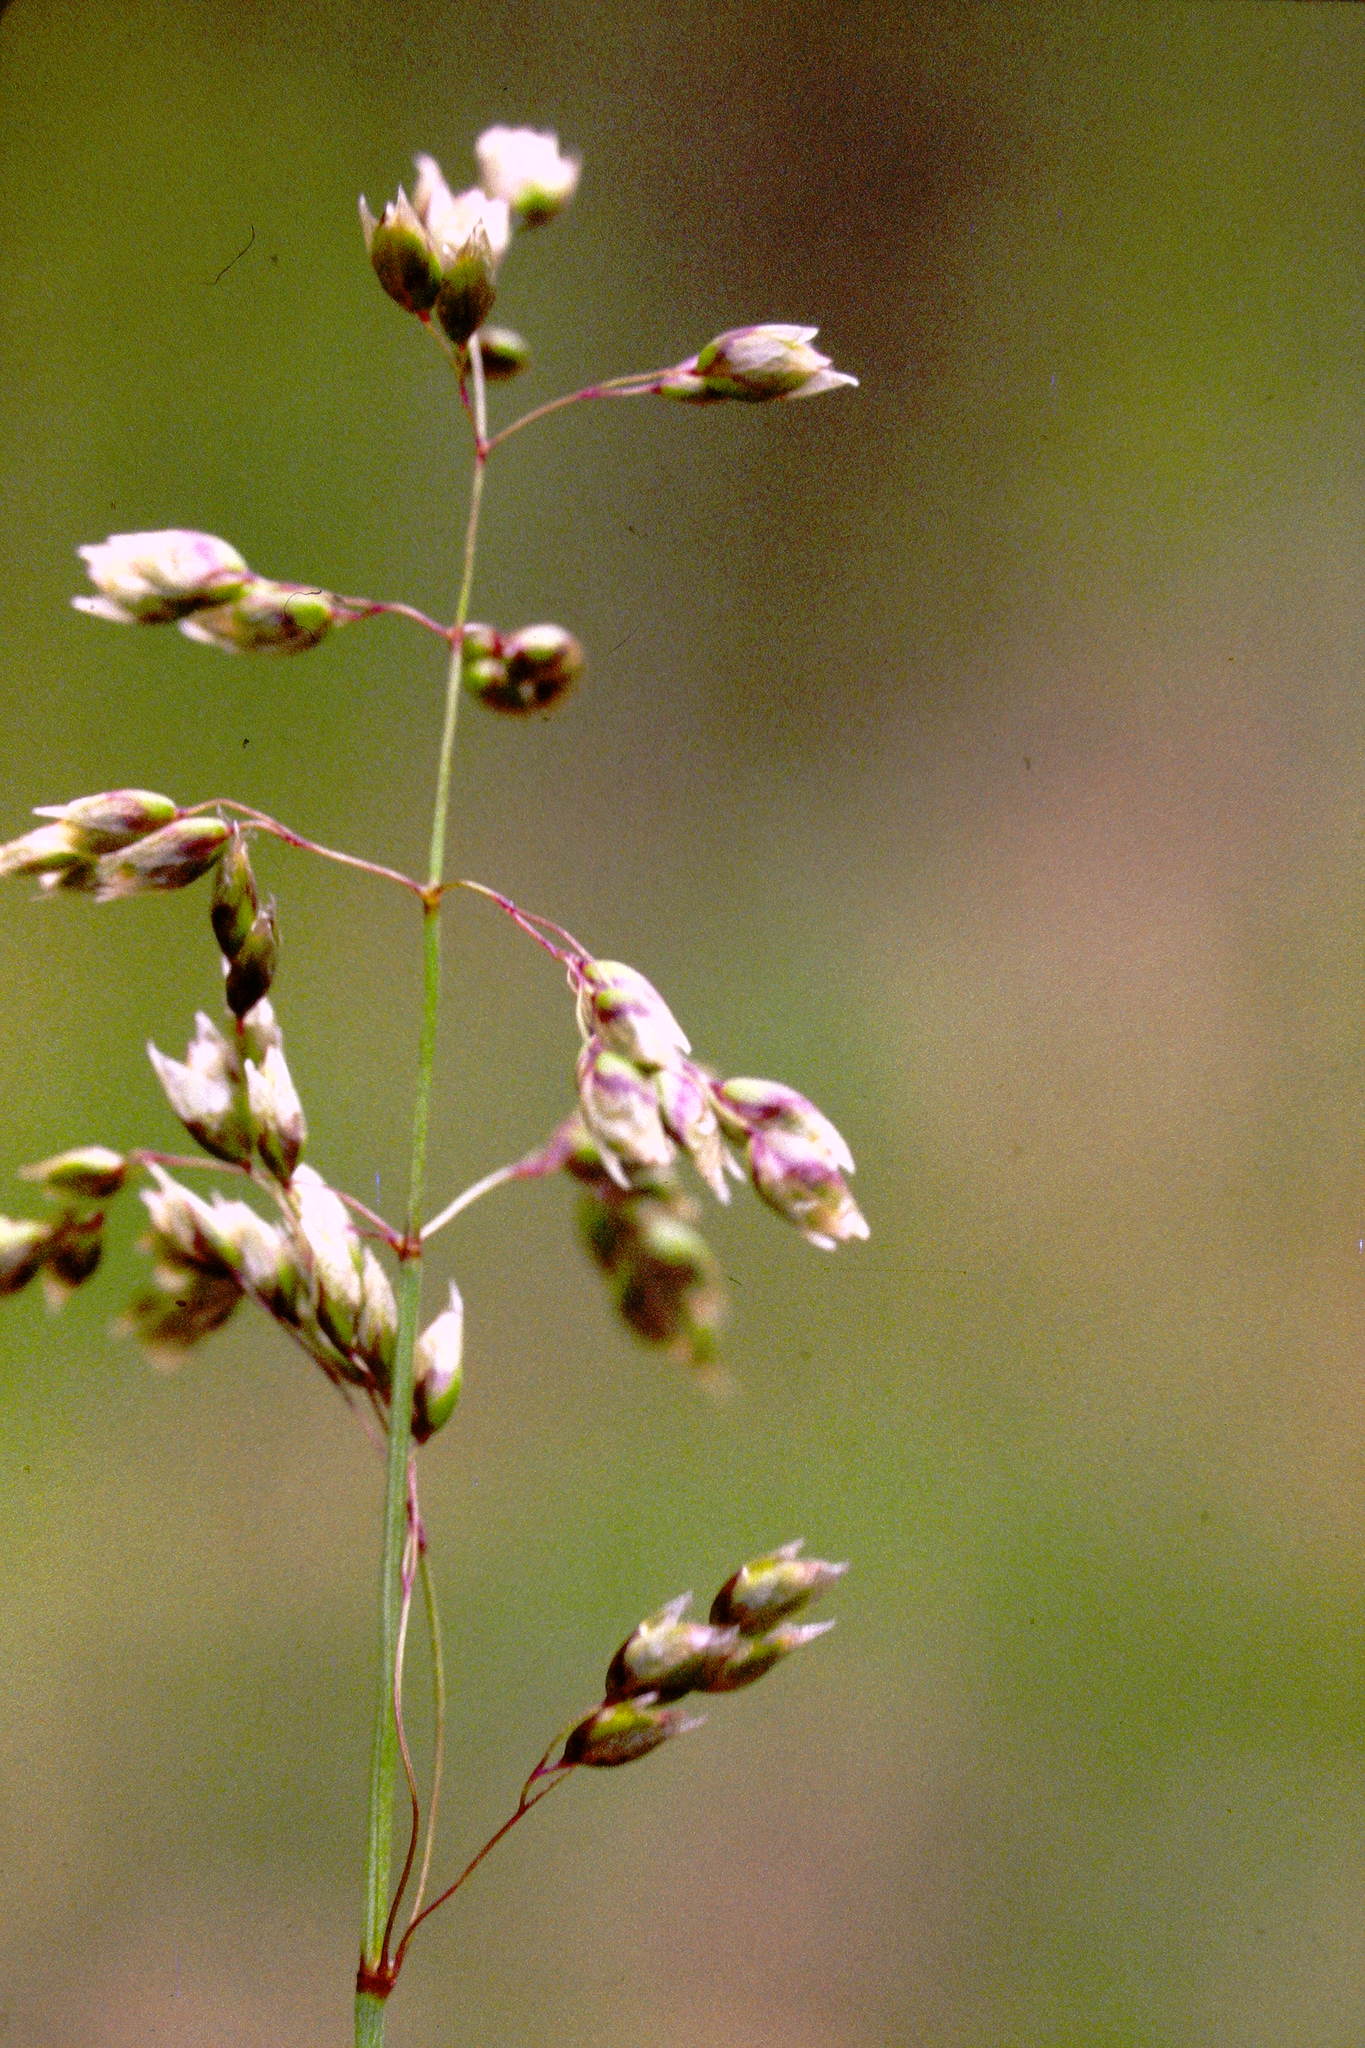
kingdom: Plantae
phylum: Tracheophyta
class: Liliopsida
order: Poales
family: Poaceae
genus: Anthoxanthum
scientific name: Anthoxanthum nitens
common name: Holy grass
